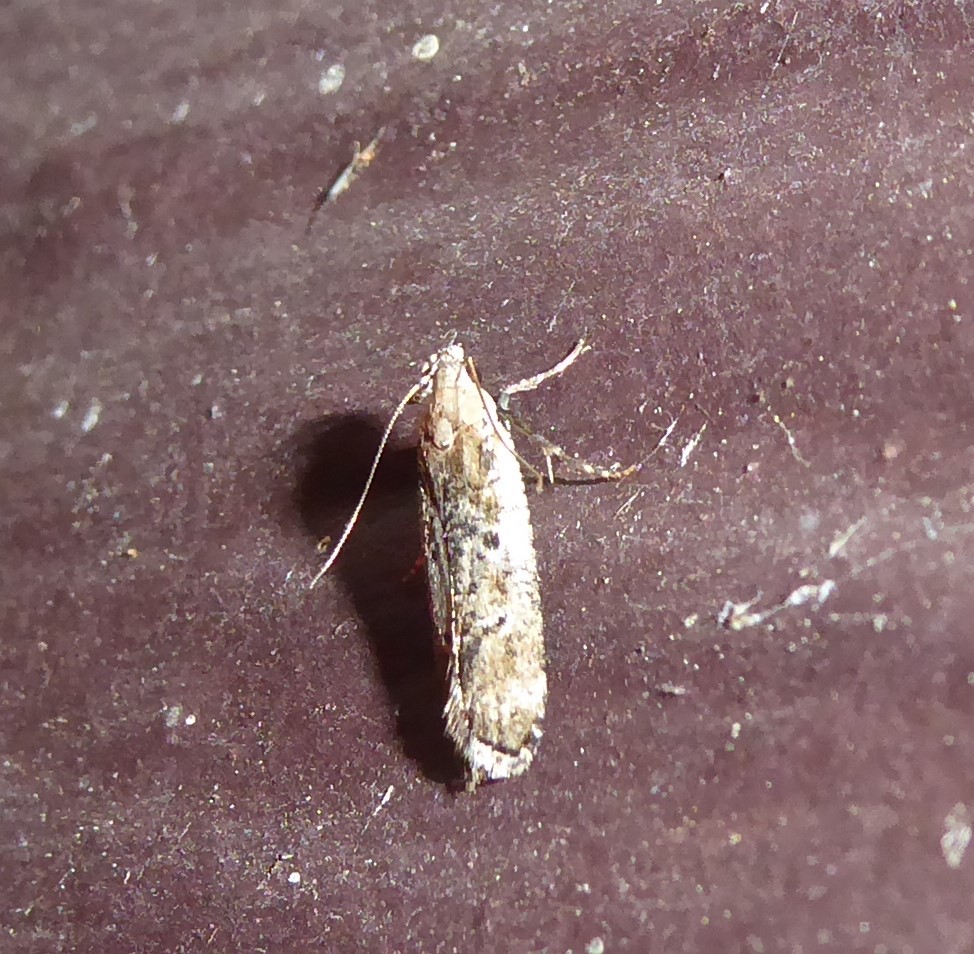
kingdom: Animalia
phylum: Arthropoda
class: Insecta
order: Lepidoptera
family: Gelechiidae
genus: Anisoplaca
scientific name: Anisoplaca achyrota
